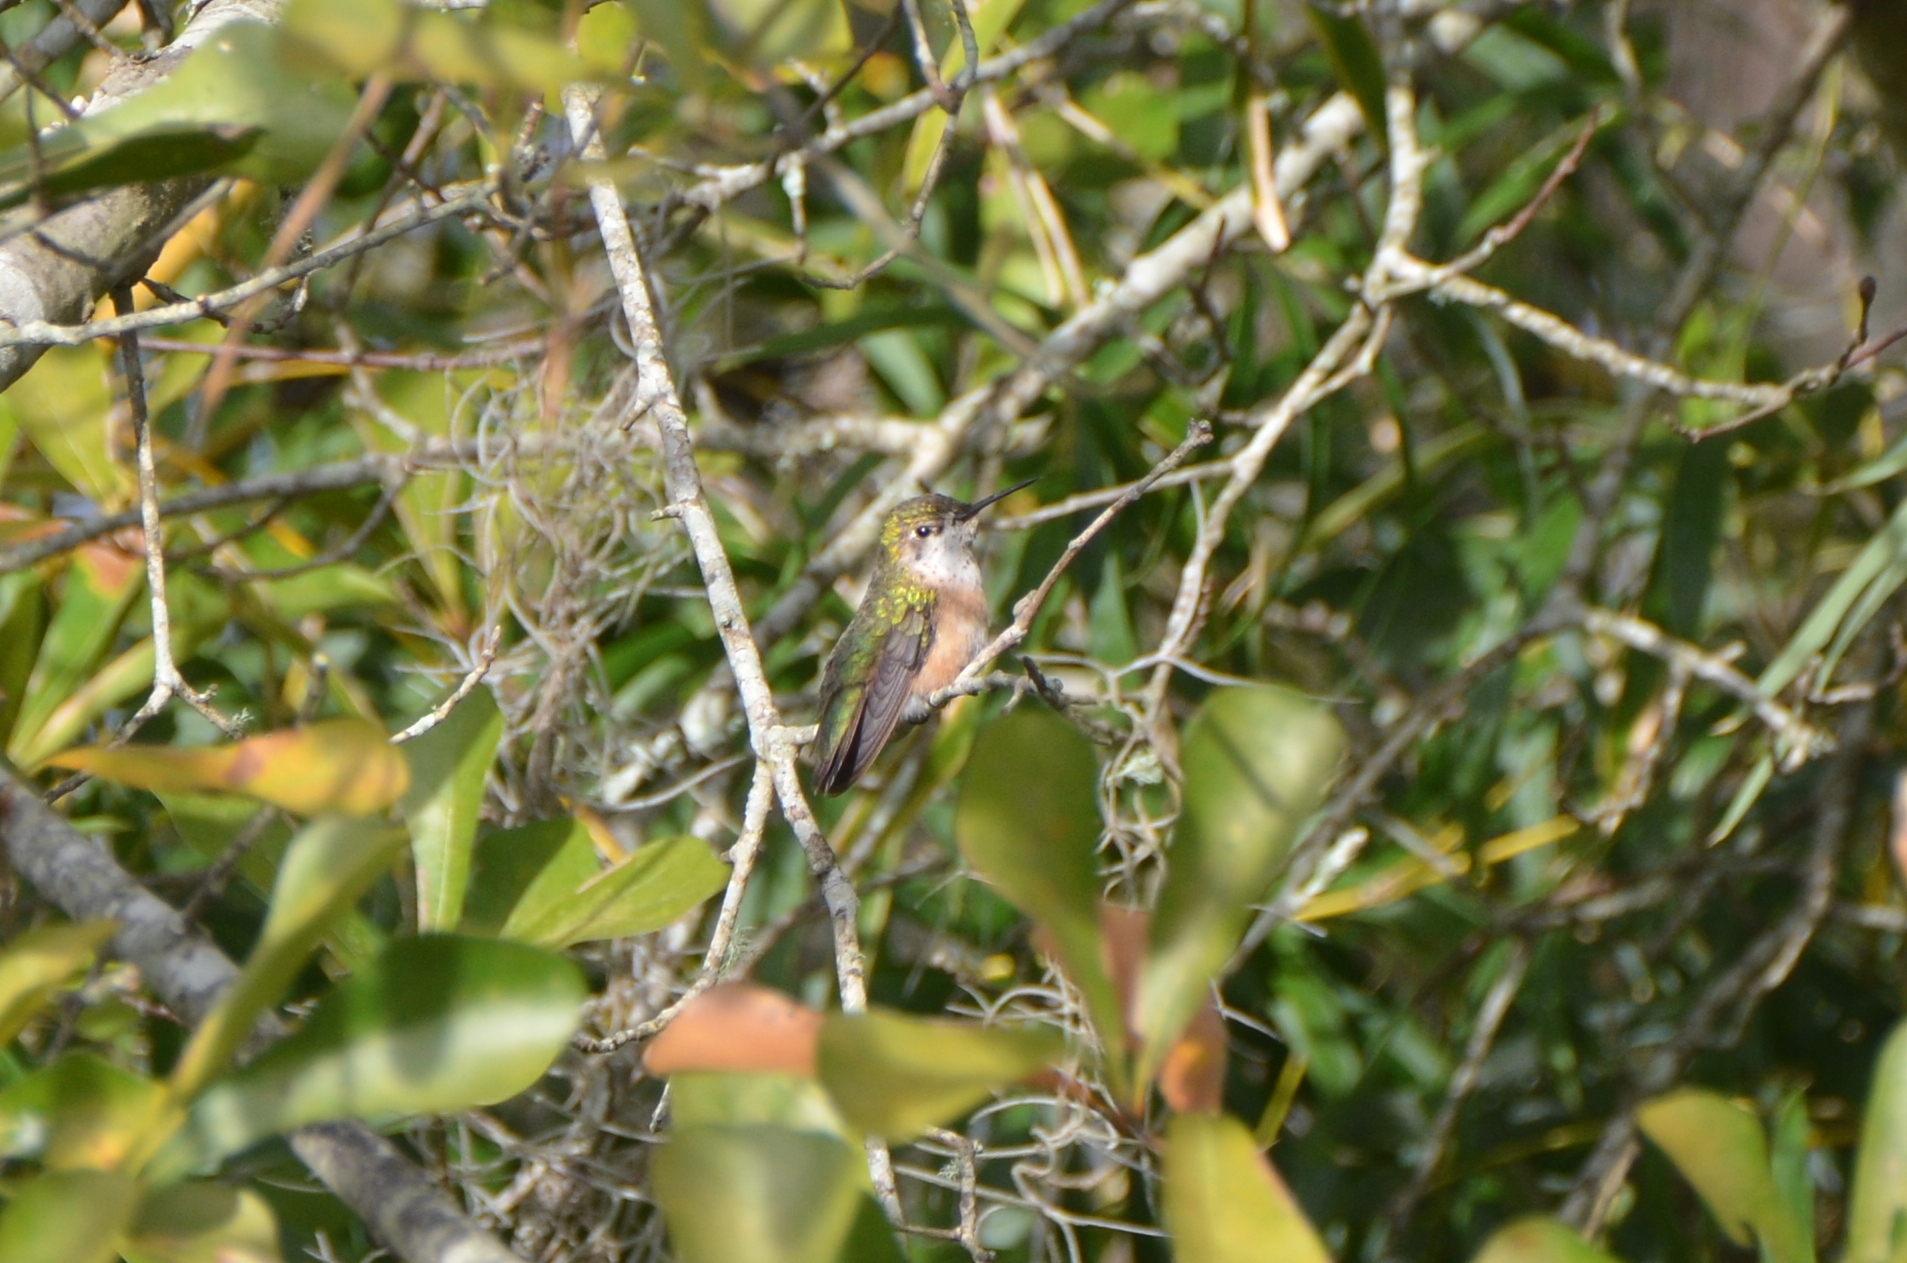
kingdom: Animalia
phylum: Chordata
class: Aves
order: Apodiformes
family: Trochilidae
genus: Selasphorus
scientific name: Selasphorus calliope
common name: Calliope hummingbird
